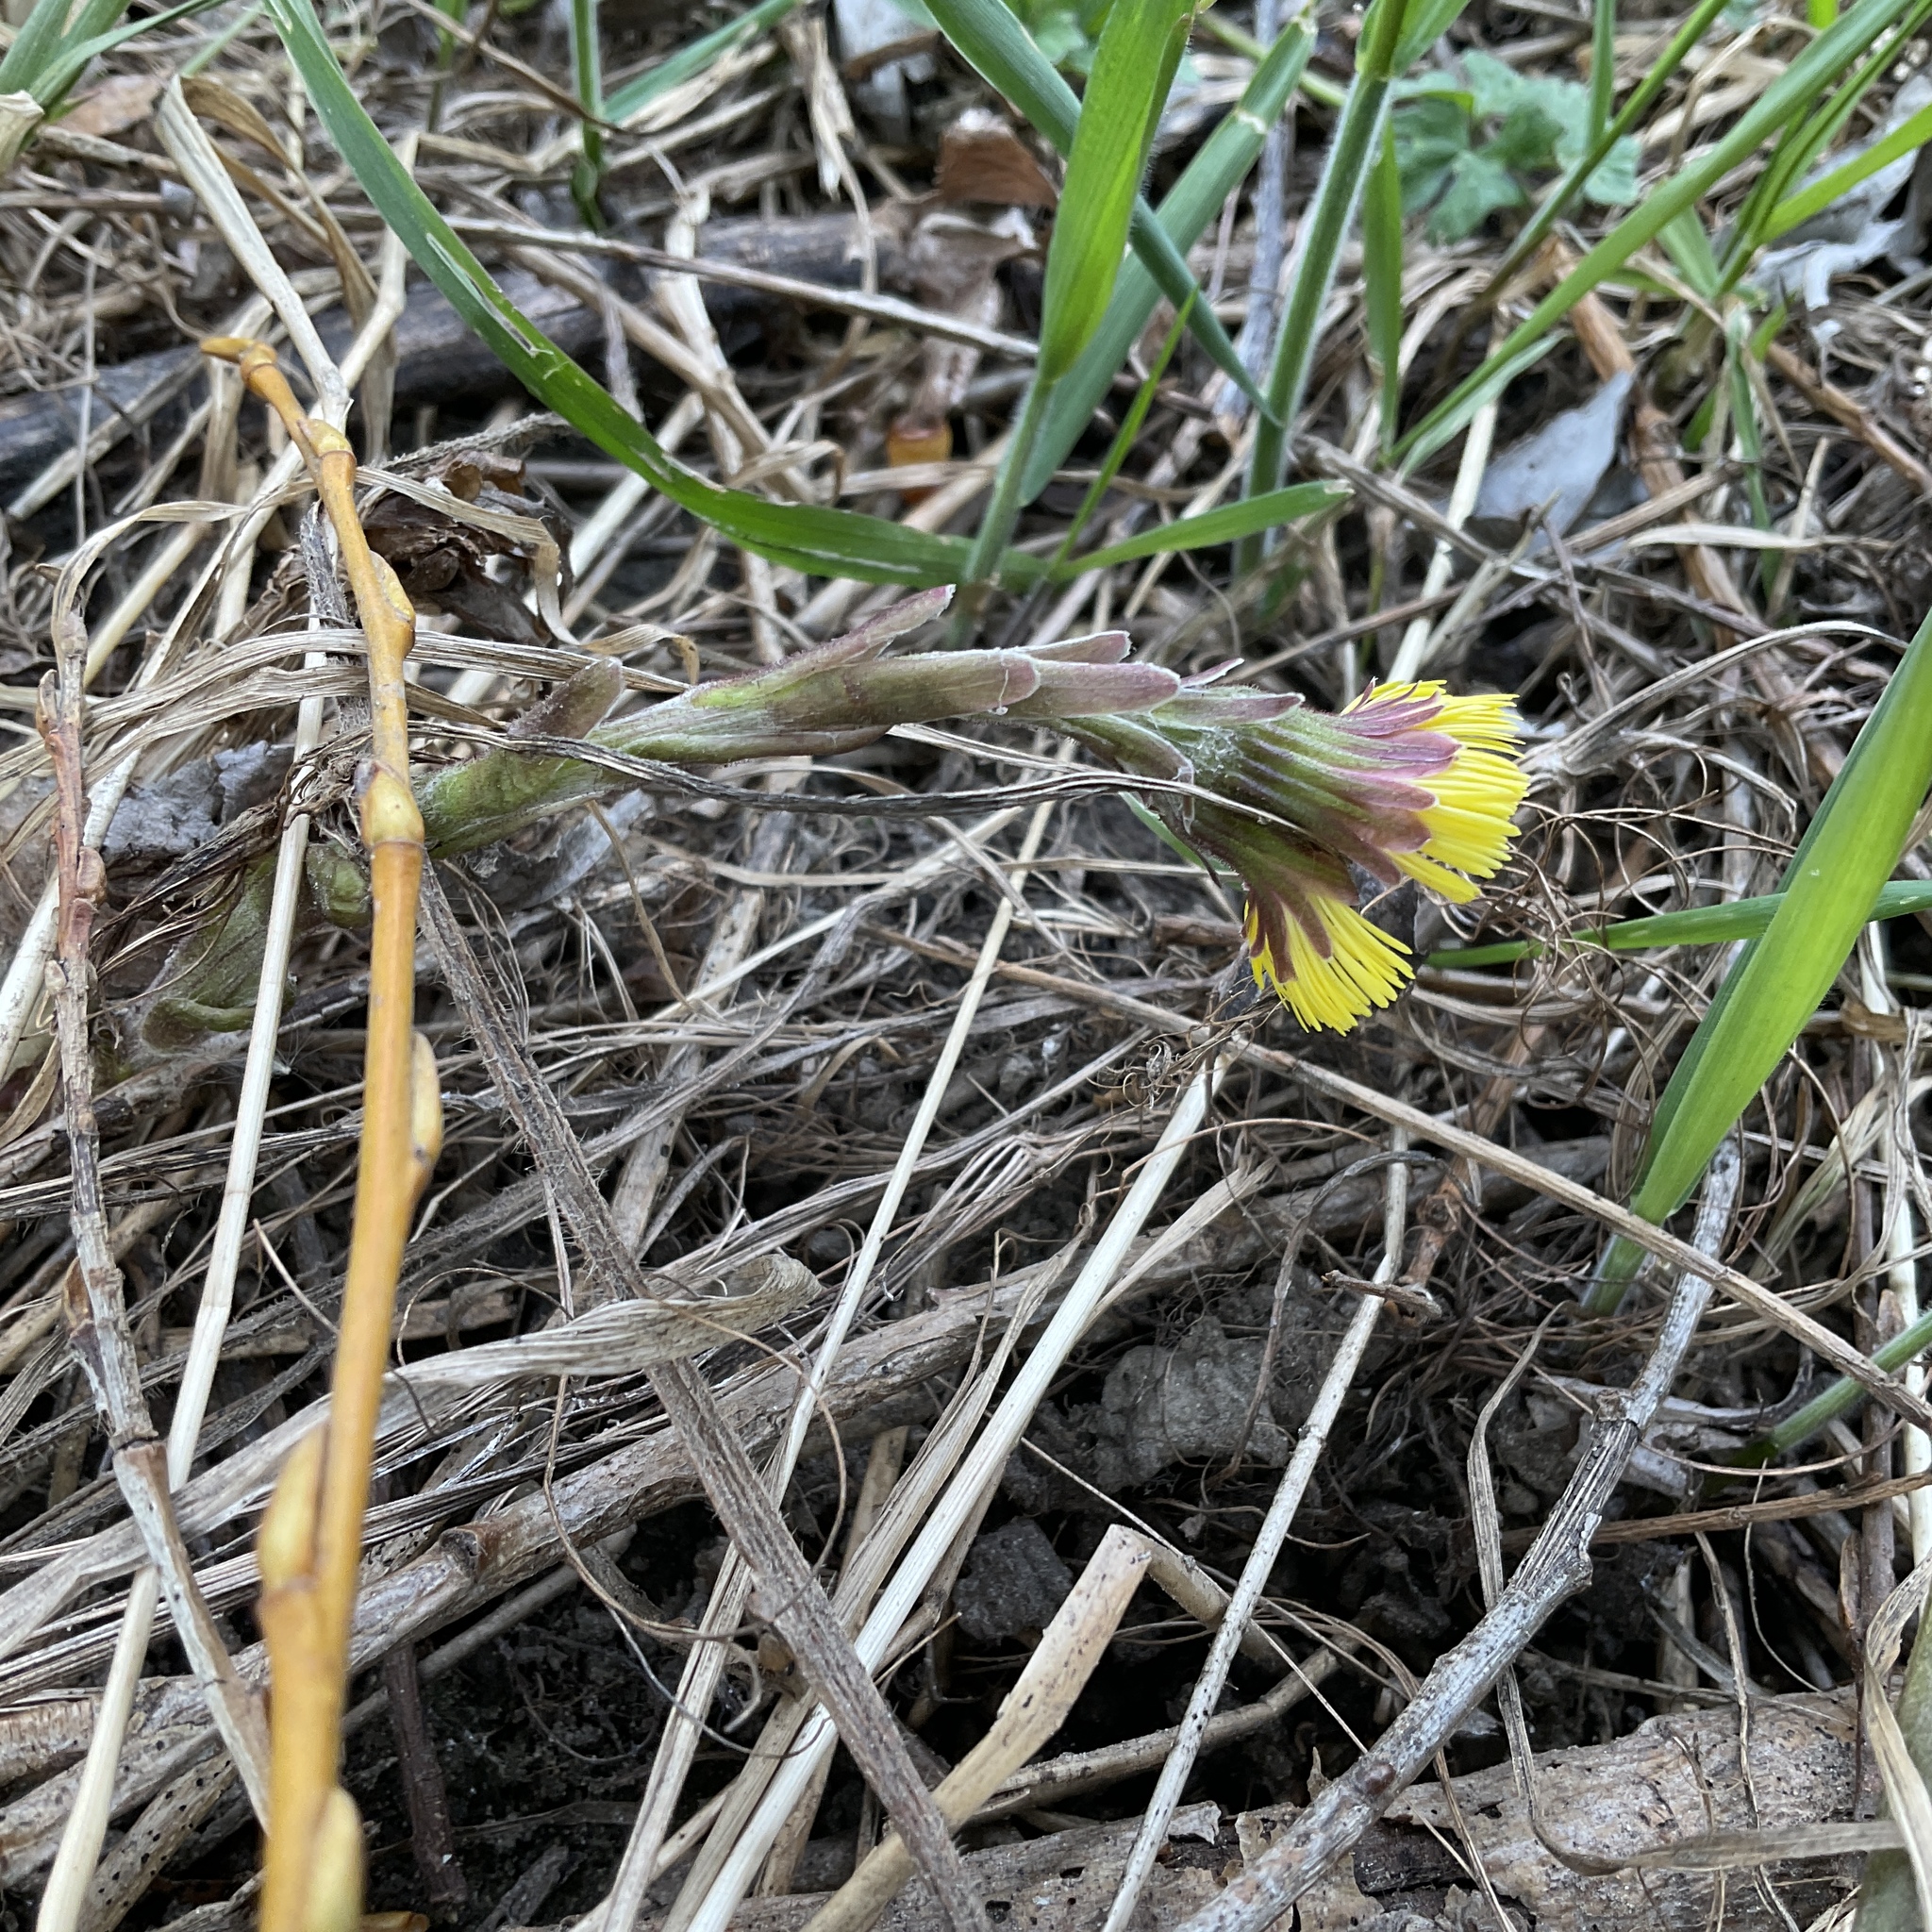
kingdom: Plantae
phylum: Tracheophyta
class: Magnoliopsida
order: Asterales
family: Asteraceae
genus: Tussilago
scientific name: Tussilago farfara
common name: Coltsfoot
